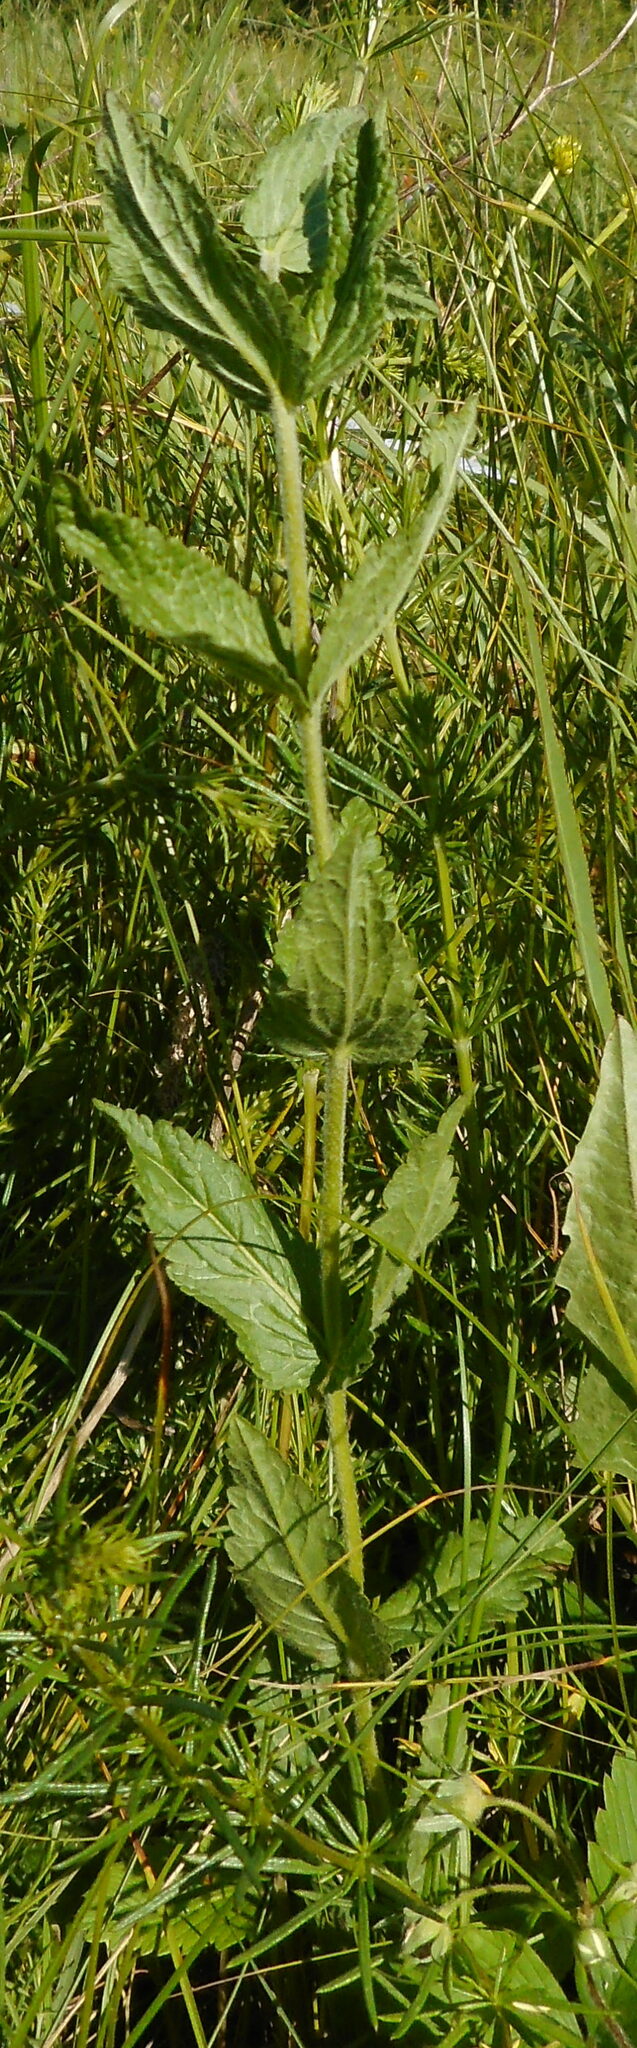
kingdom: Plantae
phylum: Tracheophyta
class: Magnoliopsida
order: Lamiales
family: Plantaginaceae
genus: Veronica
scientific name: Veronica teucrium
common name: Large speedwell
